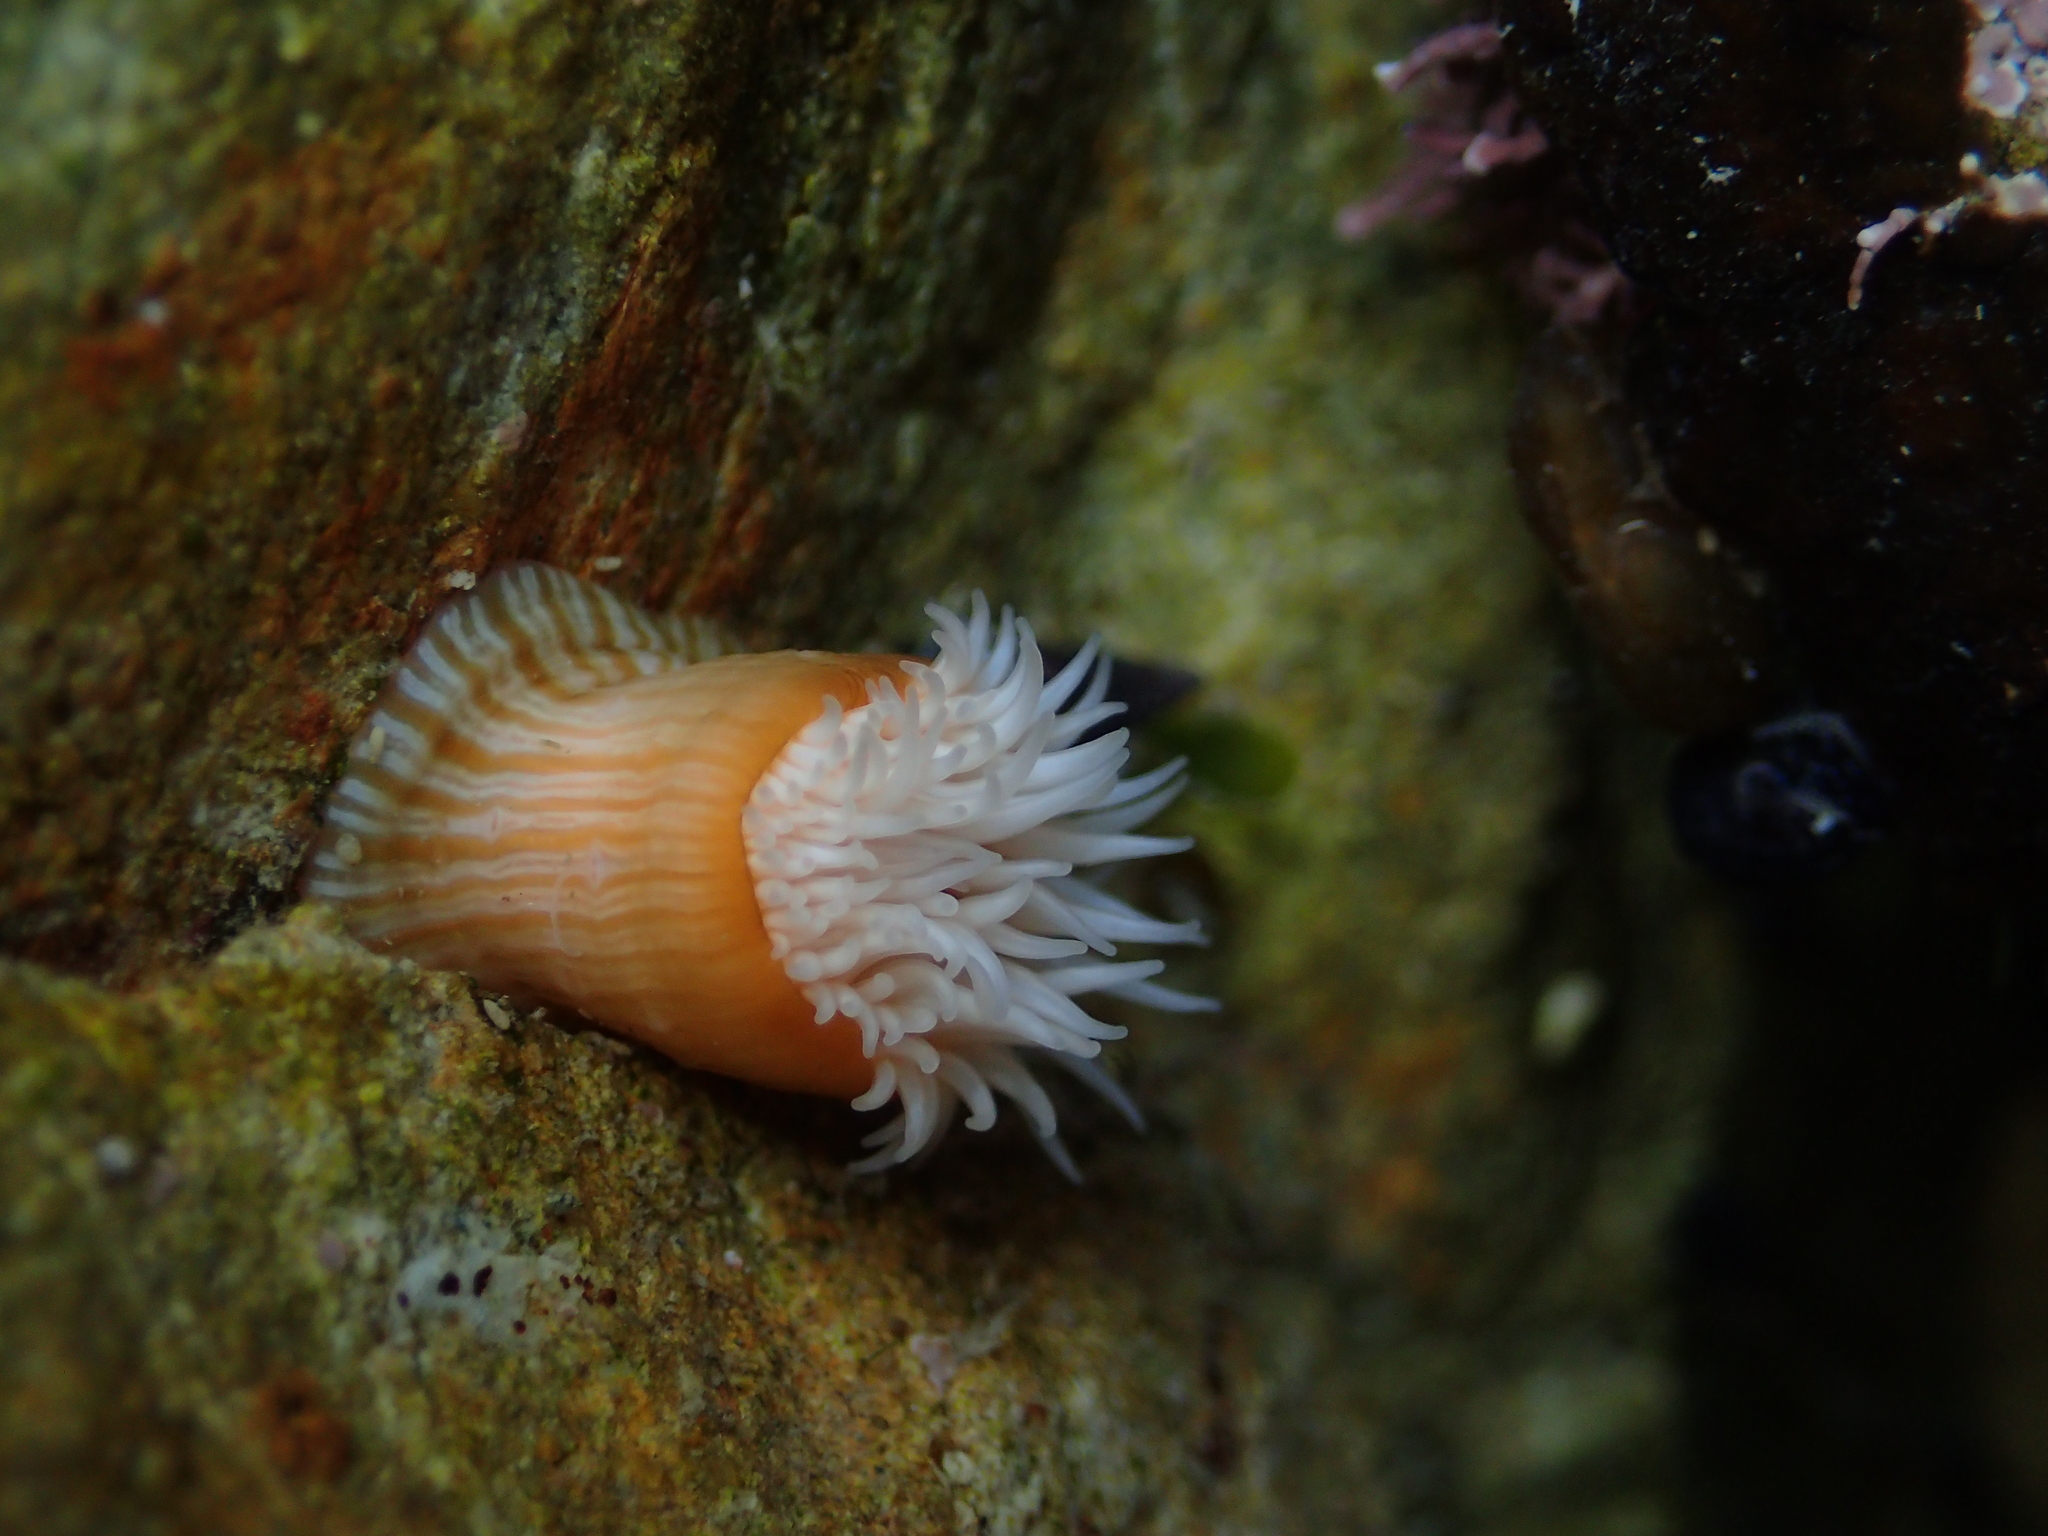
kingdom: Animalia
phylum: Cnidaria
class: Anthozoa
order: Actiniaria
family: Sagartiidae
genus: Anthothoe
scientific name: Anthothoe albocincta
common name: Orange striped anemone
